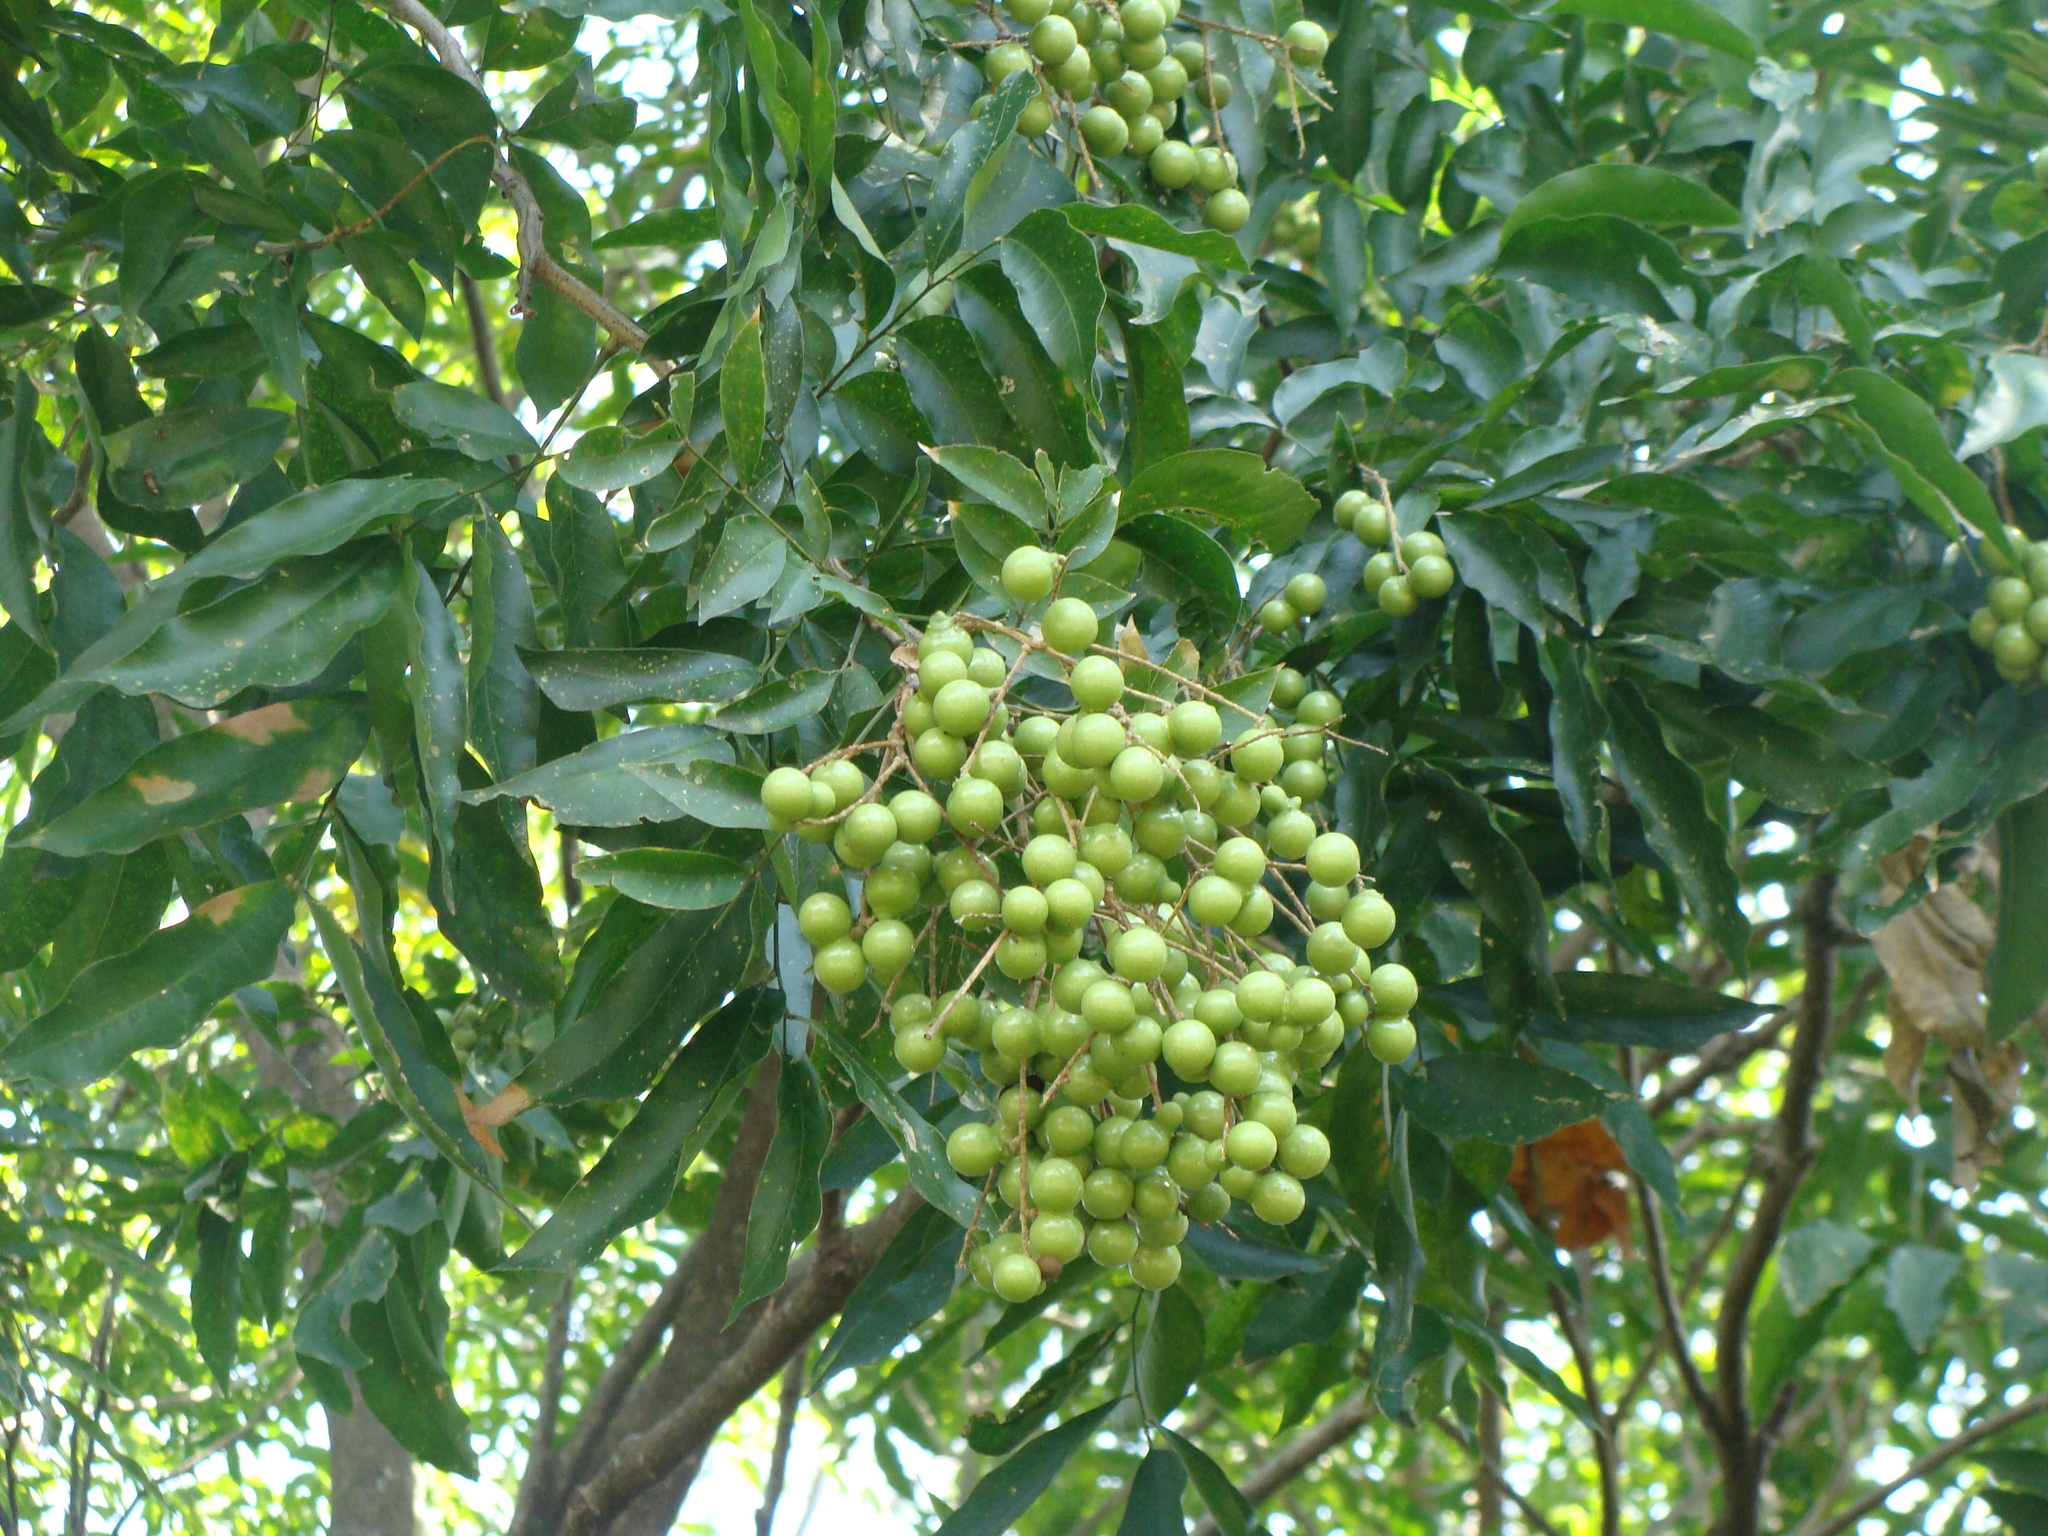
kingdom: Plantae
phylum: Tracheophyta
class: Magnoliopsida
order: Sapindales
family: Sapindaceae
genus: Sapindus
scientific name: Sapindus saponaria
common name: Wingleaf soapberry
